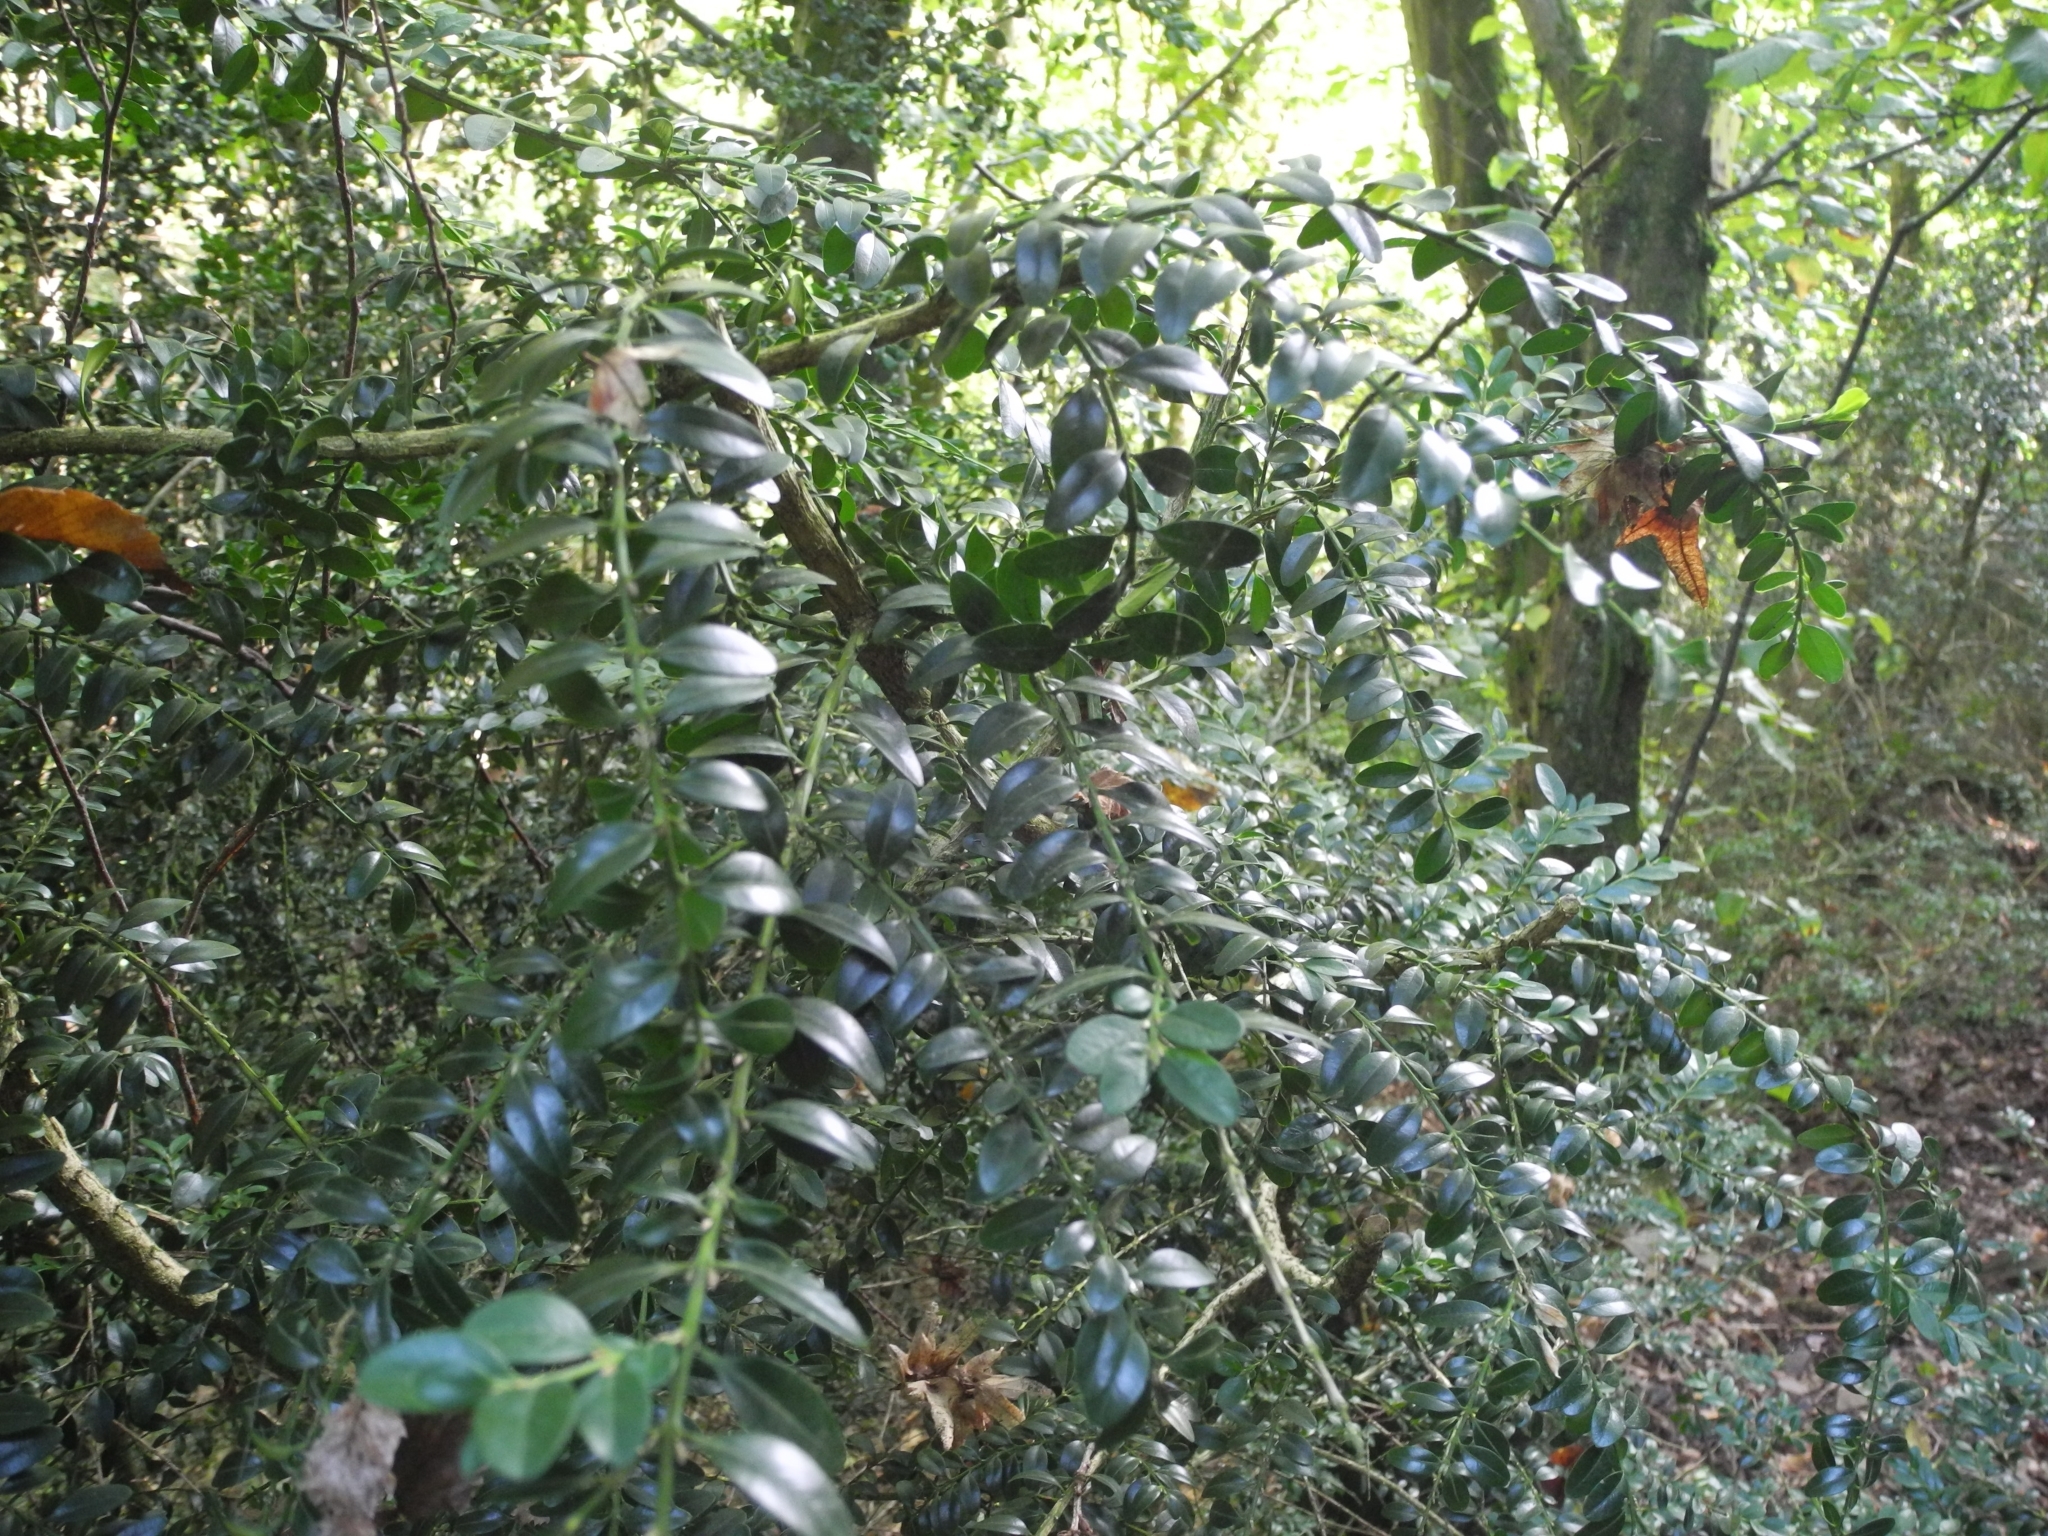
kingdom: Plantae
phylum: Tracheophyta
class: Magnoliopsida
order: Buxales
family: Buxaceae
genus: Buxus
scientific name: Buxus sempervirens
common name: Box
